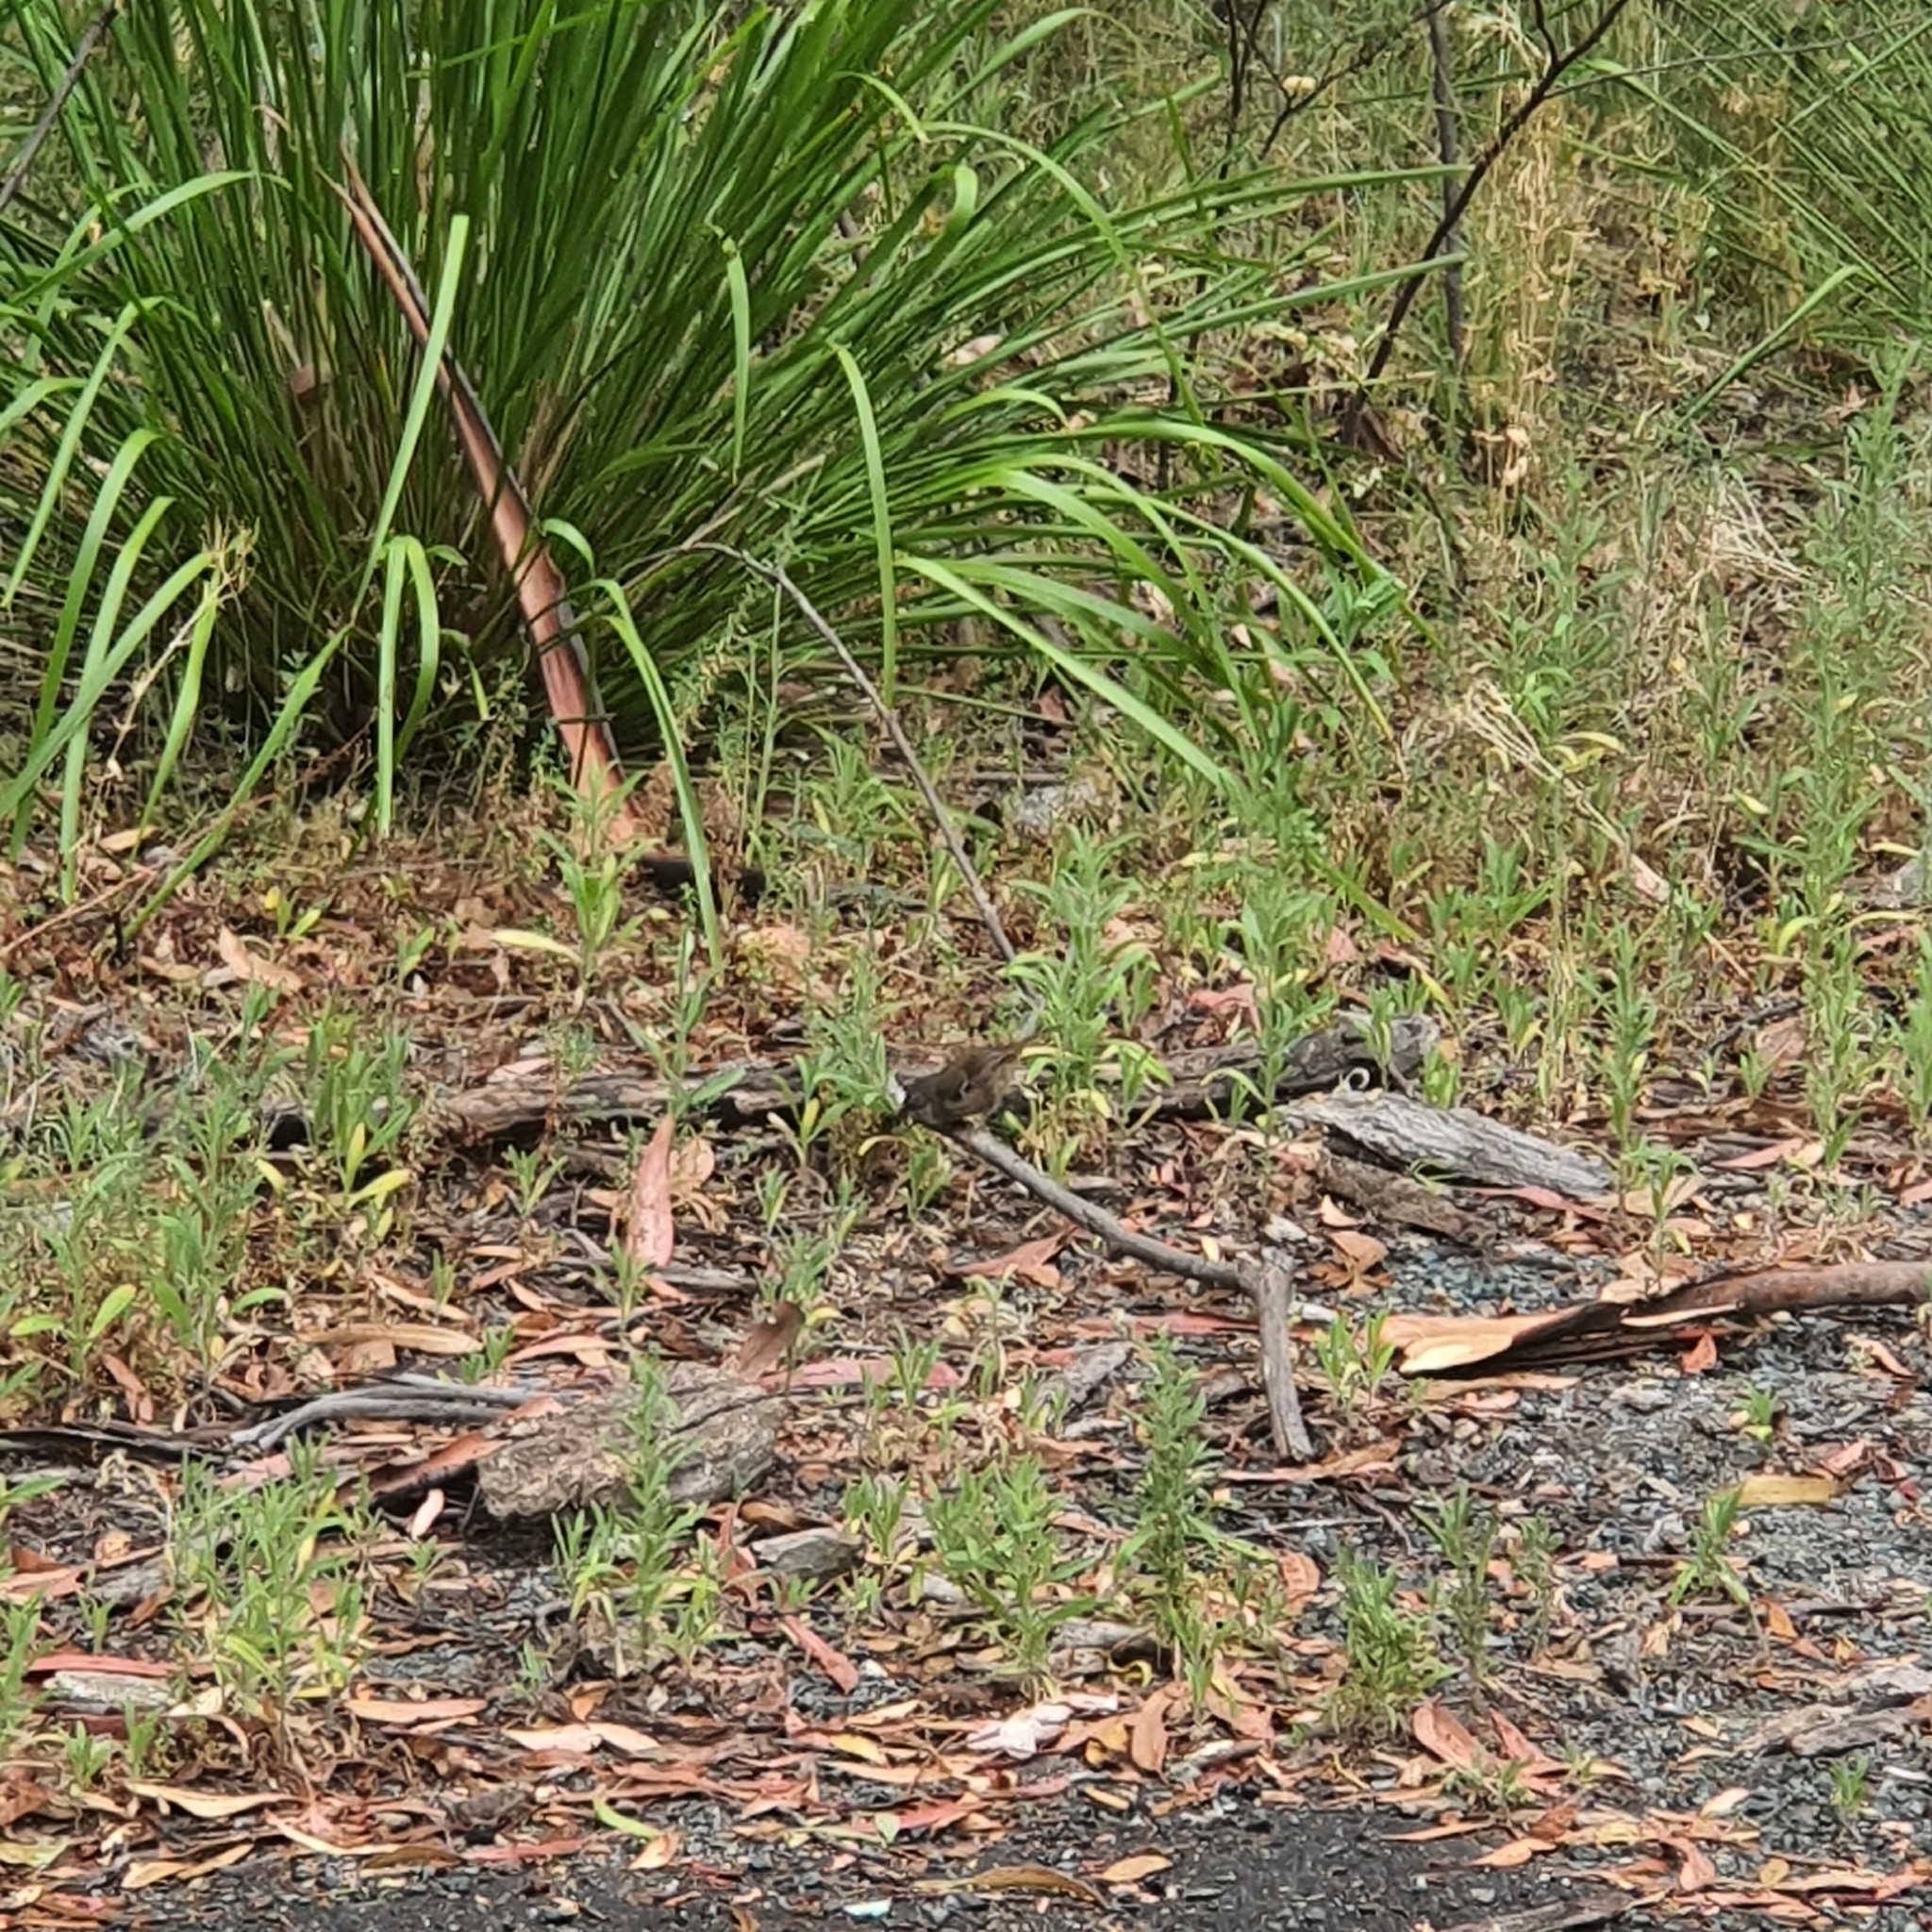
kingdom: Animalia
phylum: Chordata
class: Aves
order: Passeriformes
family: Acanthizidae
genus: Sericornis
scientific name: Sericornis frontalis
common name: White-browed scrubwren
